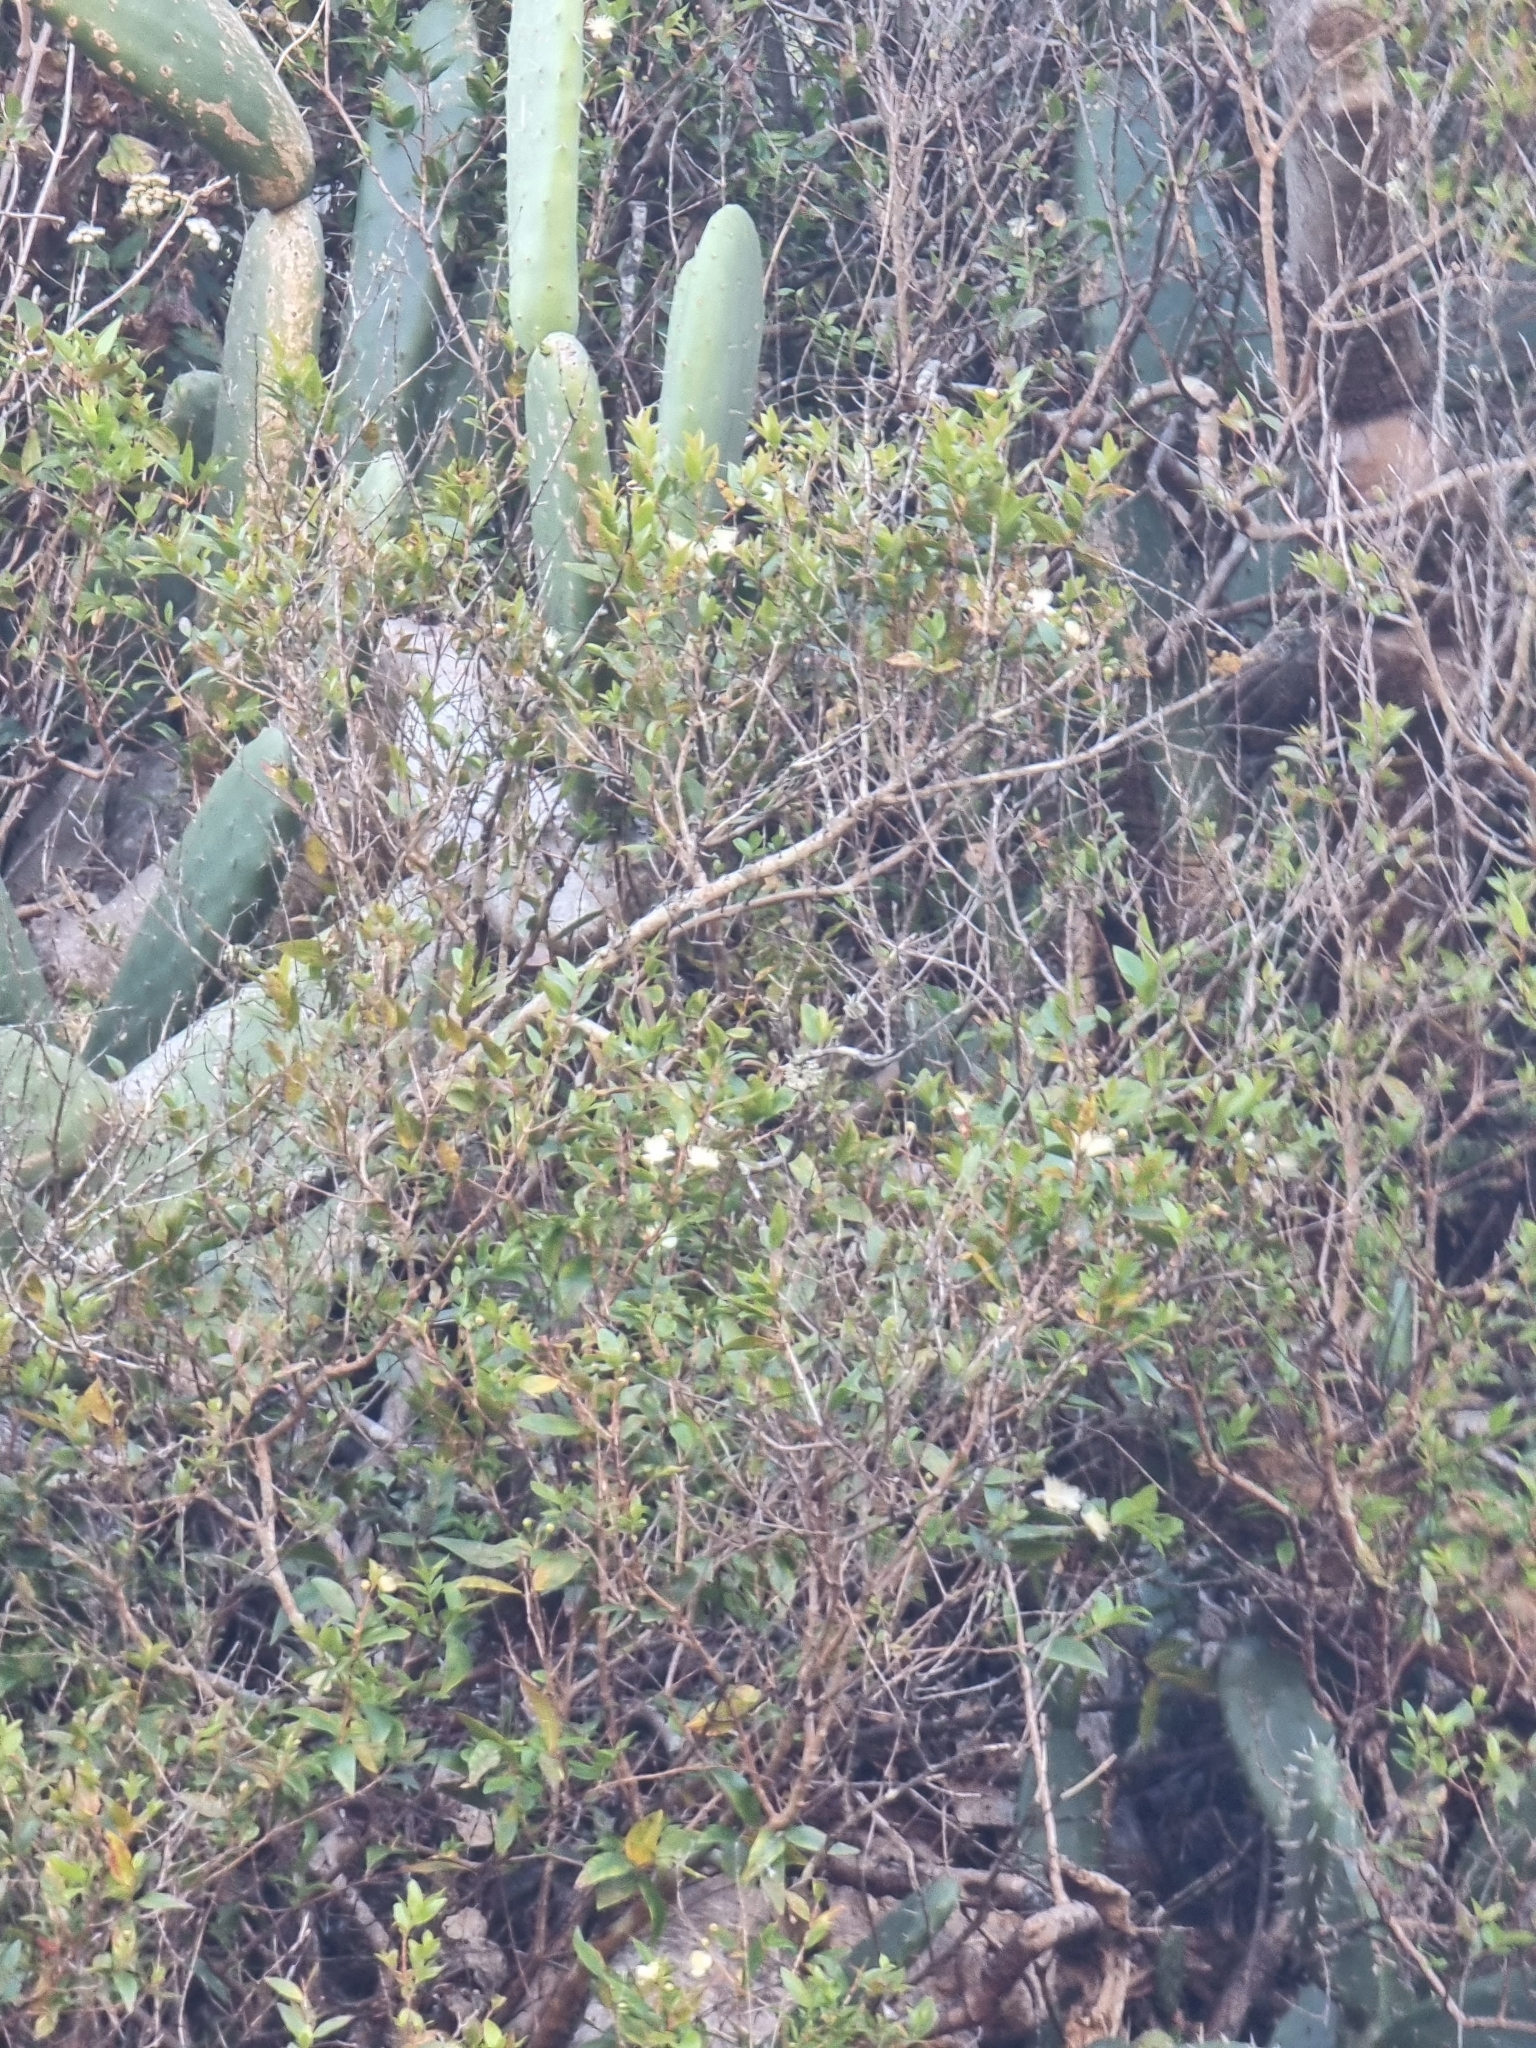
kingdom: Plantae
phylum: Tracheophyta
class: Magnoliopsida
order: Myrtales
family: Myrtaceae
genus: Myrtus
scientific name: Myrtus communis
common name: Myrtle
